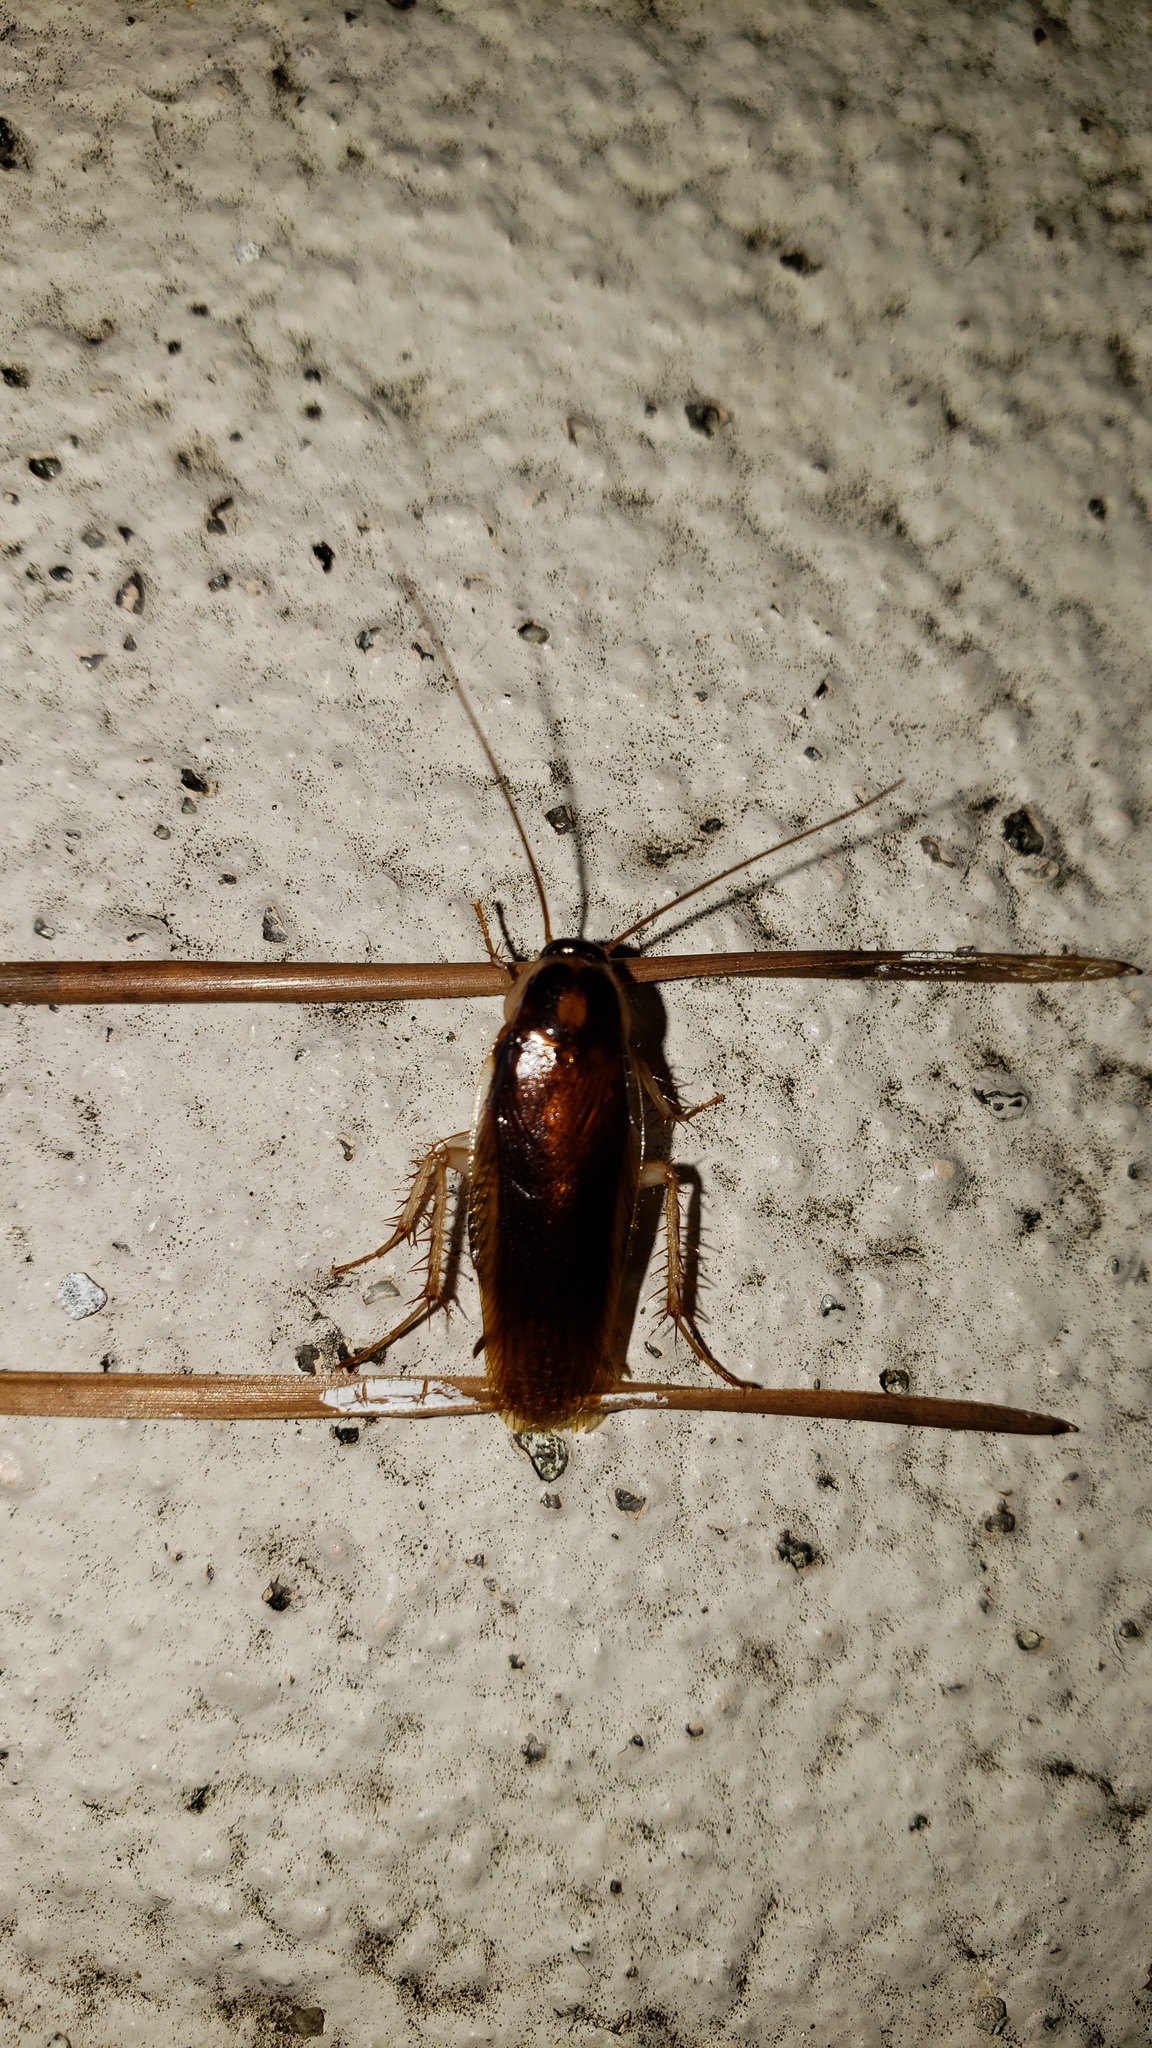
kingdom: Animalia
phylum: Arthropoda
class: Insecta
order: Blattodea
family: Ectobiidae
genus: Ischnoptera
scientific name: Ischnoptera bilunata
